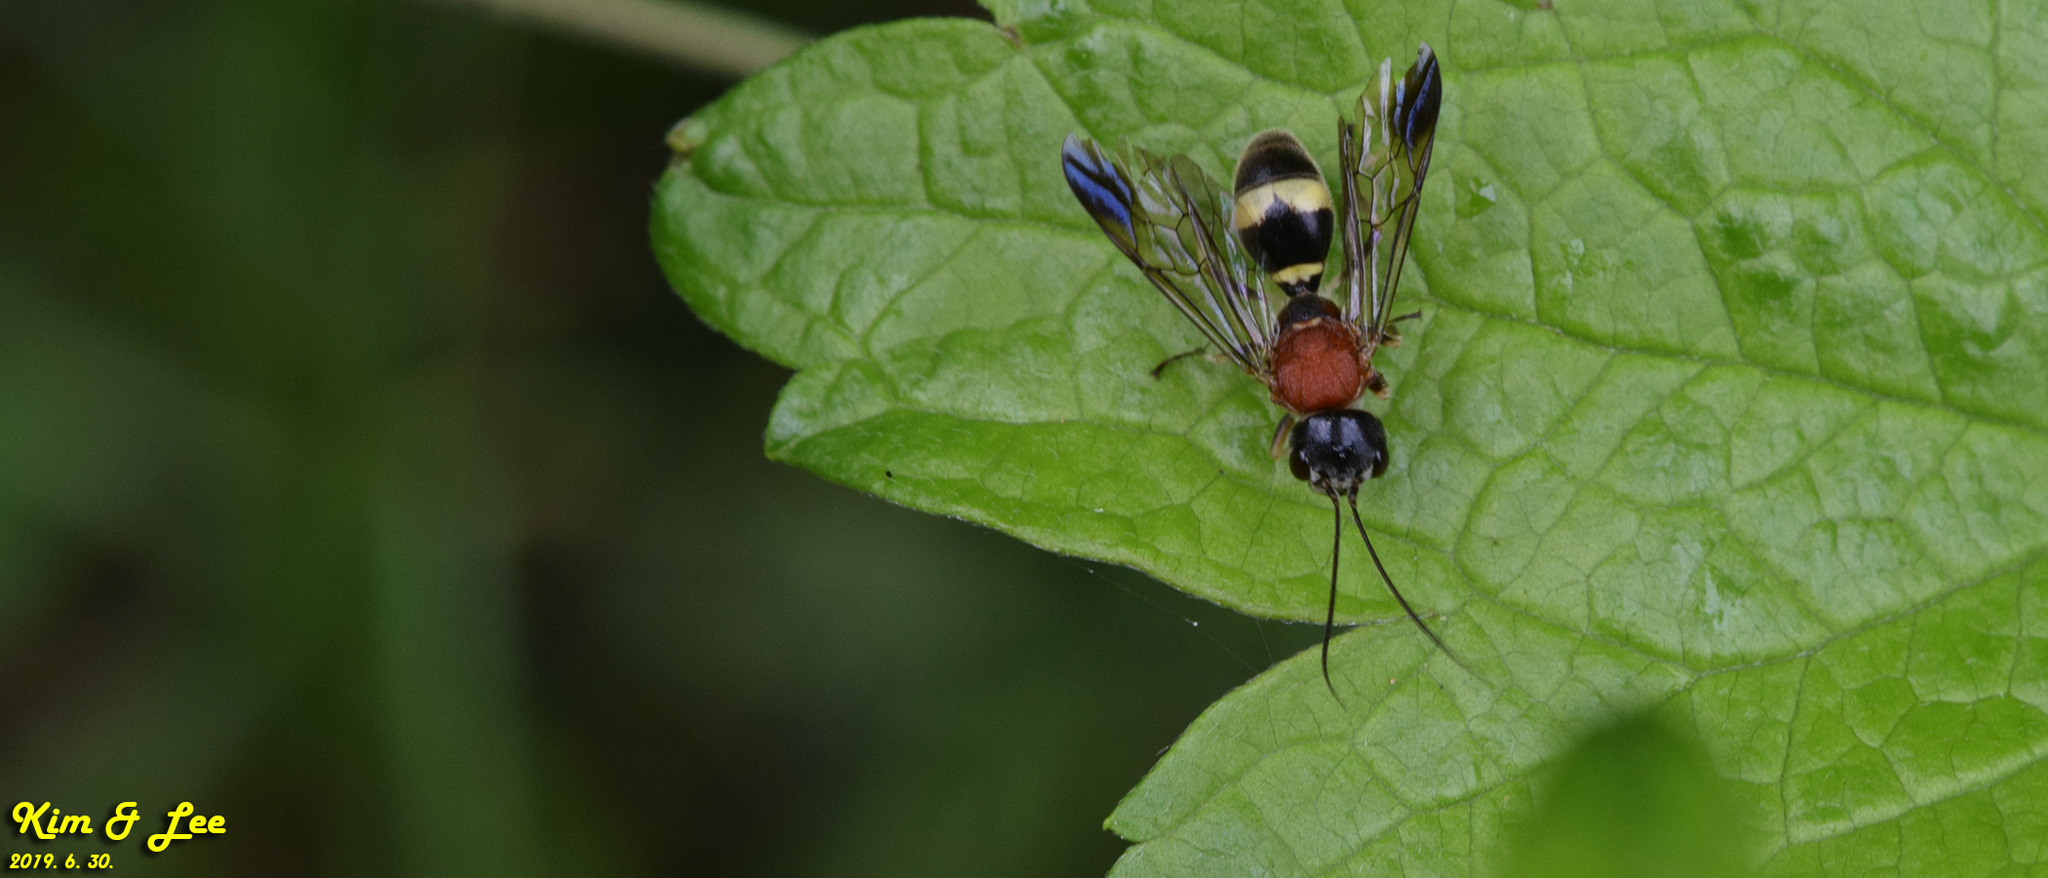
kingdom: Animalia
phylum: Arthropoda
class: Insecta
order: Hymenoptera
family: Trigonalidae
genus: Taeniogonalos
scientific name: Taeniogonalos fasciata
